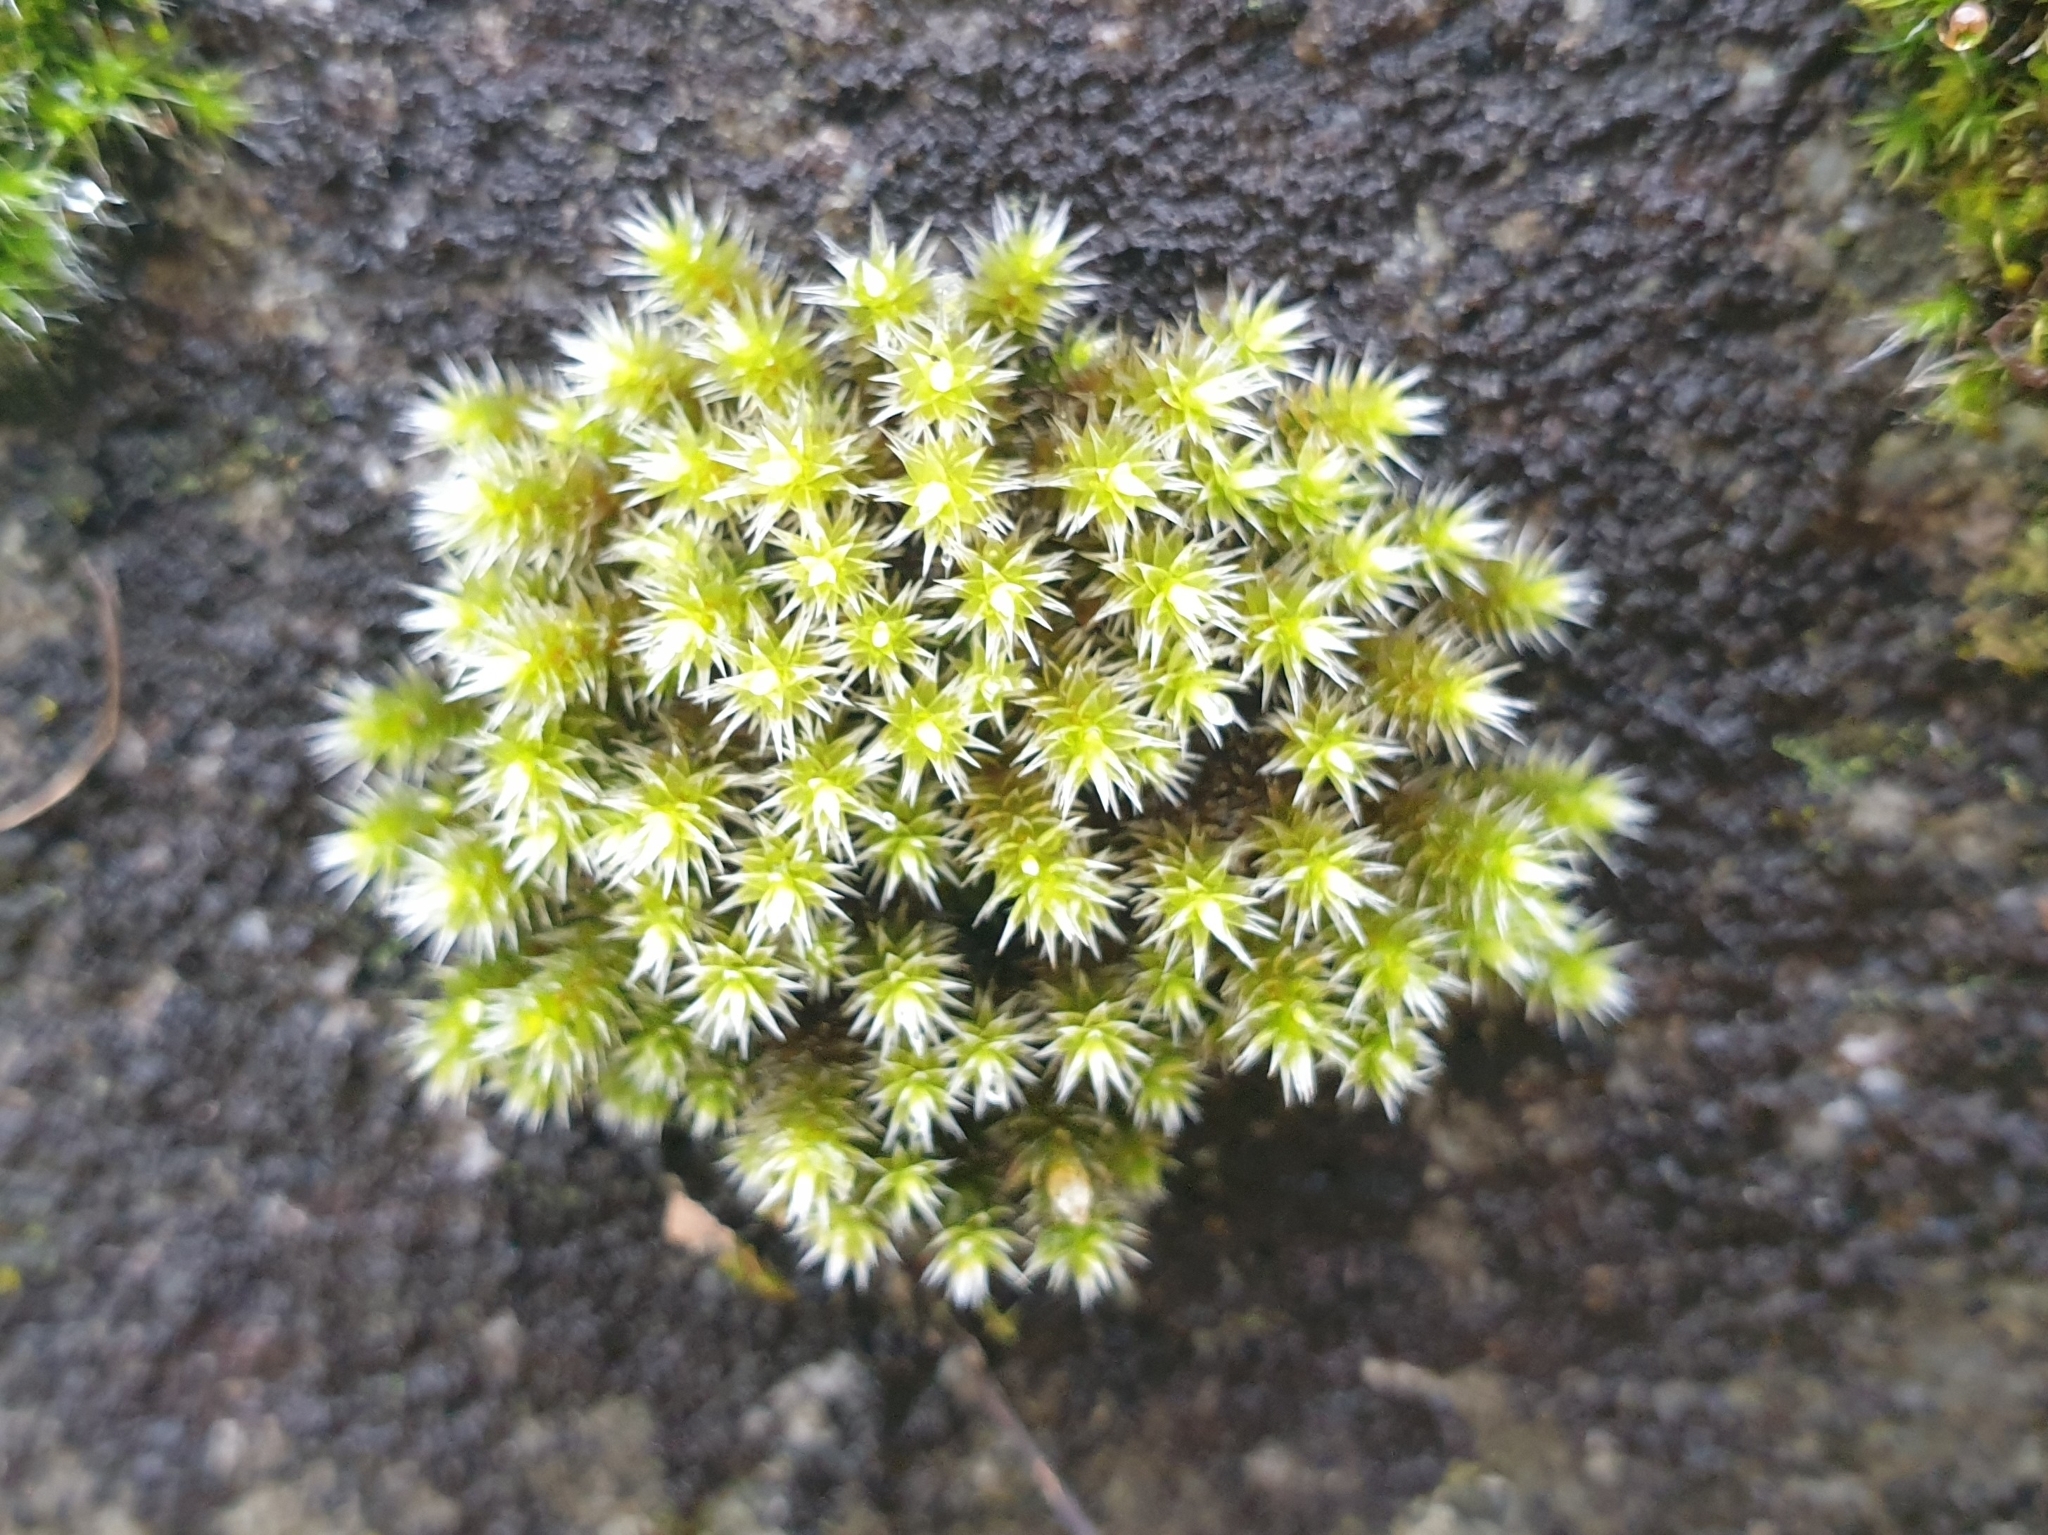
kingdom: Plantae
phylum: Bryophyta
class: Bryopsida
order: Hedwigiales
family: Hedwigiaceae
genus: Hedwigia
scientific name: Hedwigia emodica
